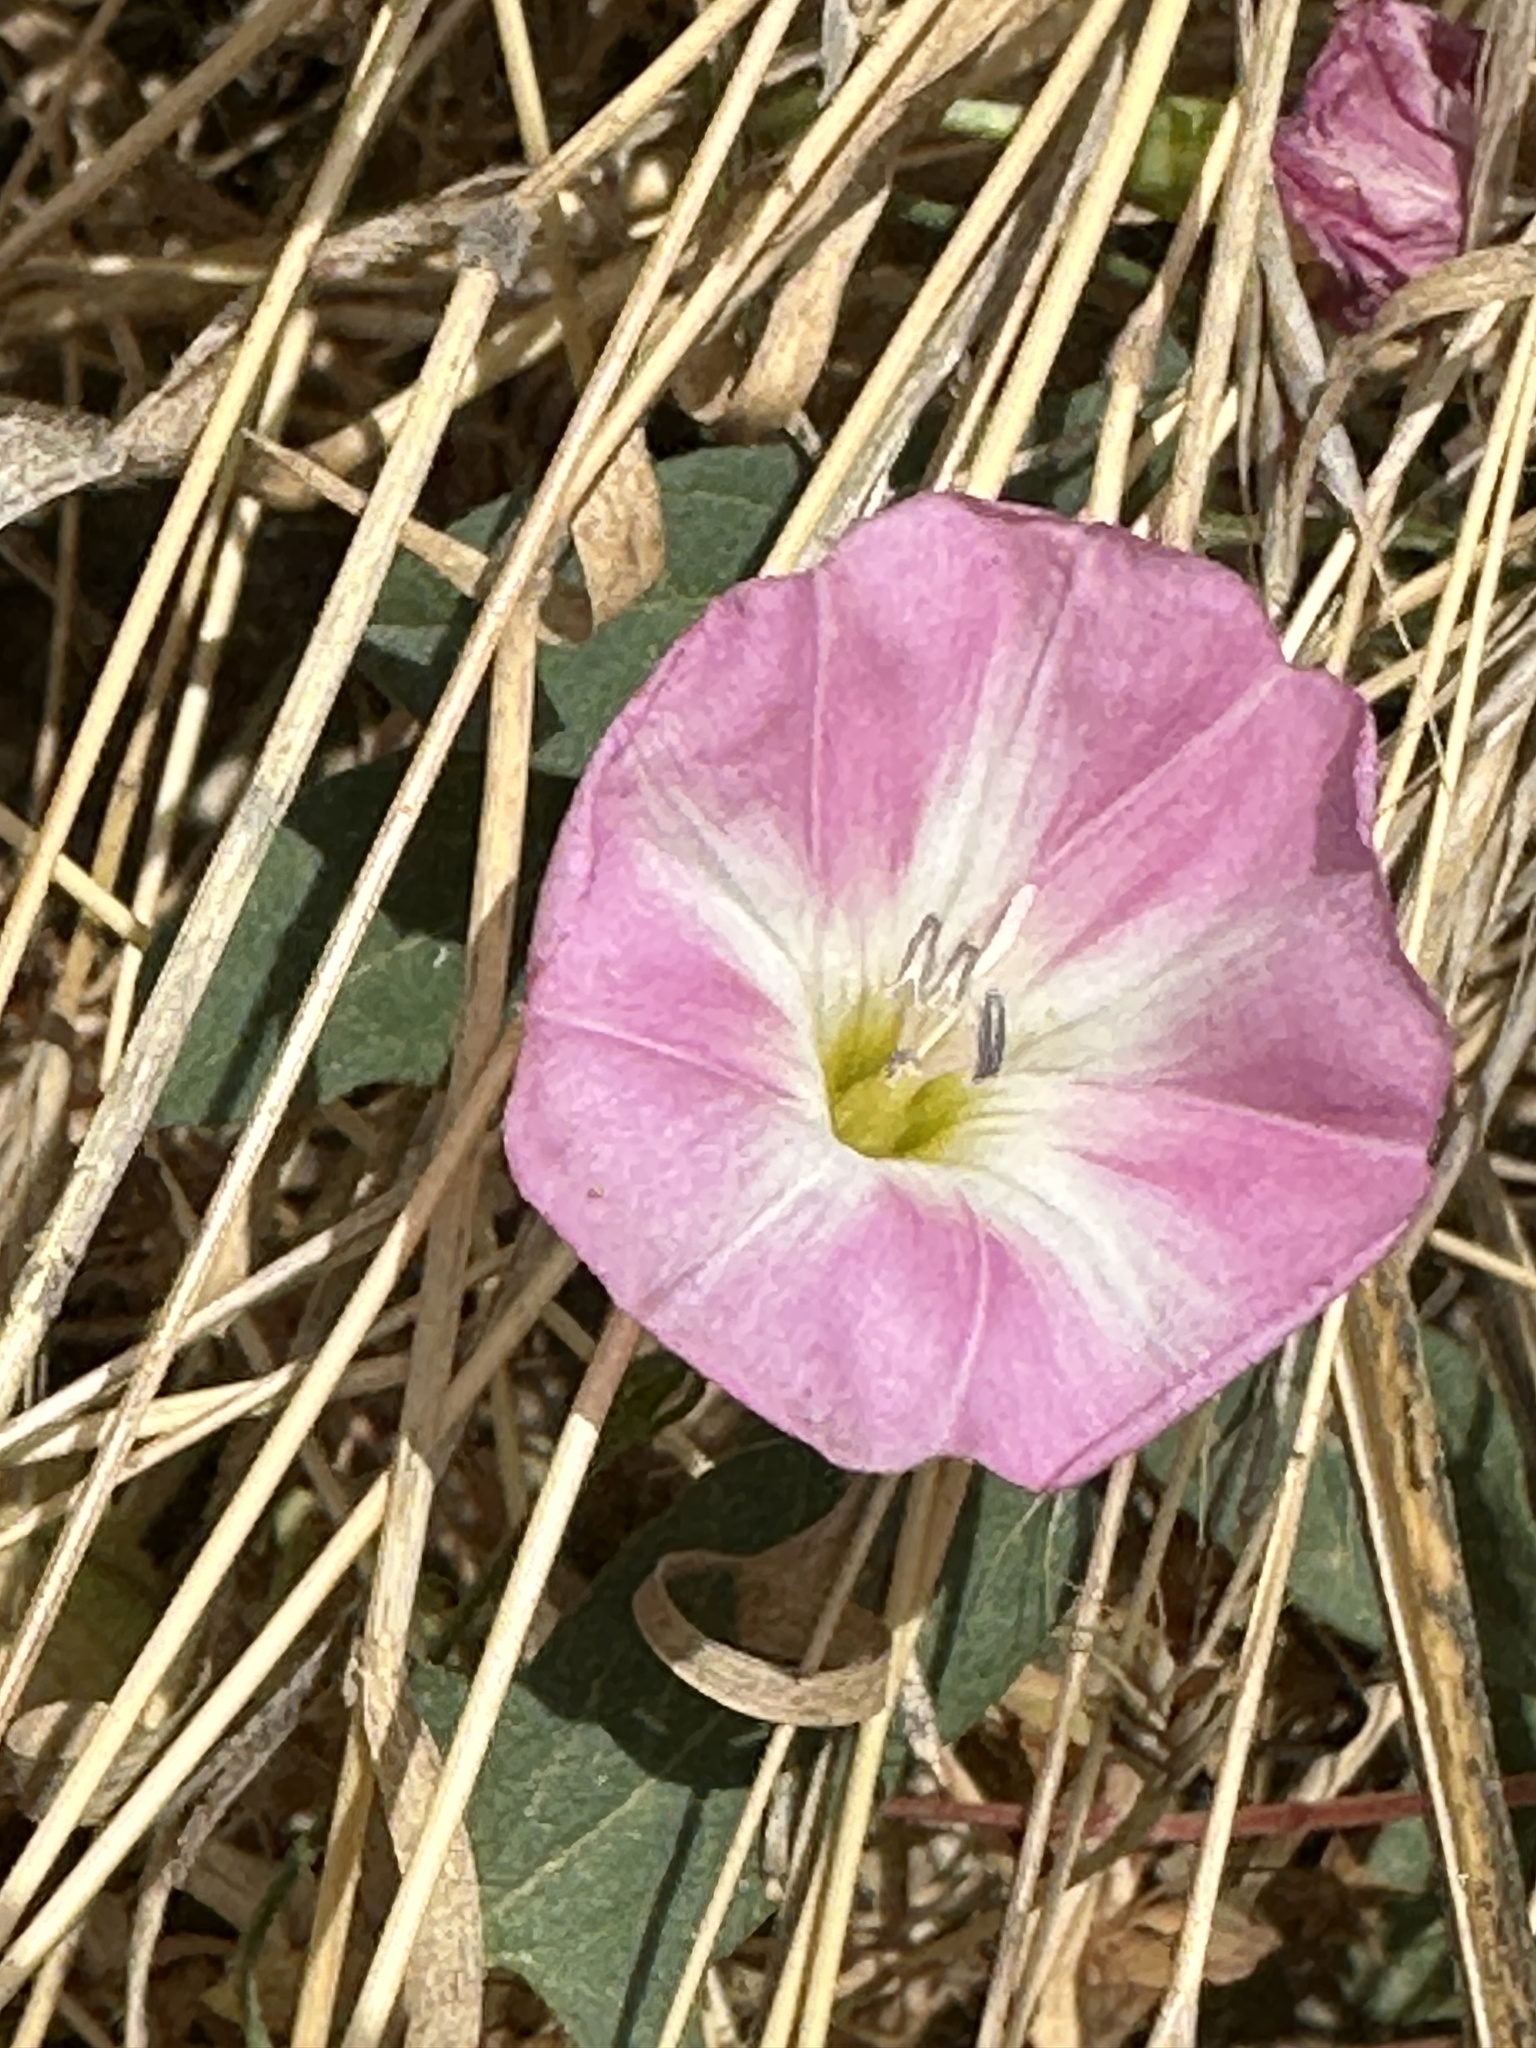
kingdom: Plantae
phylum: Tracheophyta
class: Magnoliopsida
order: Solanales
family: Convolvulaceae
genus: Convolvulus
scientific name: Convolvulus arvensis
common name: Field bindweed
